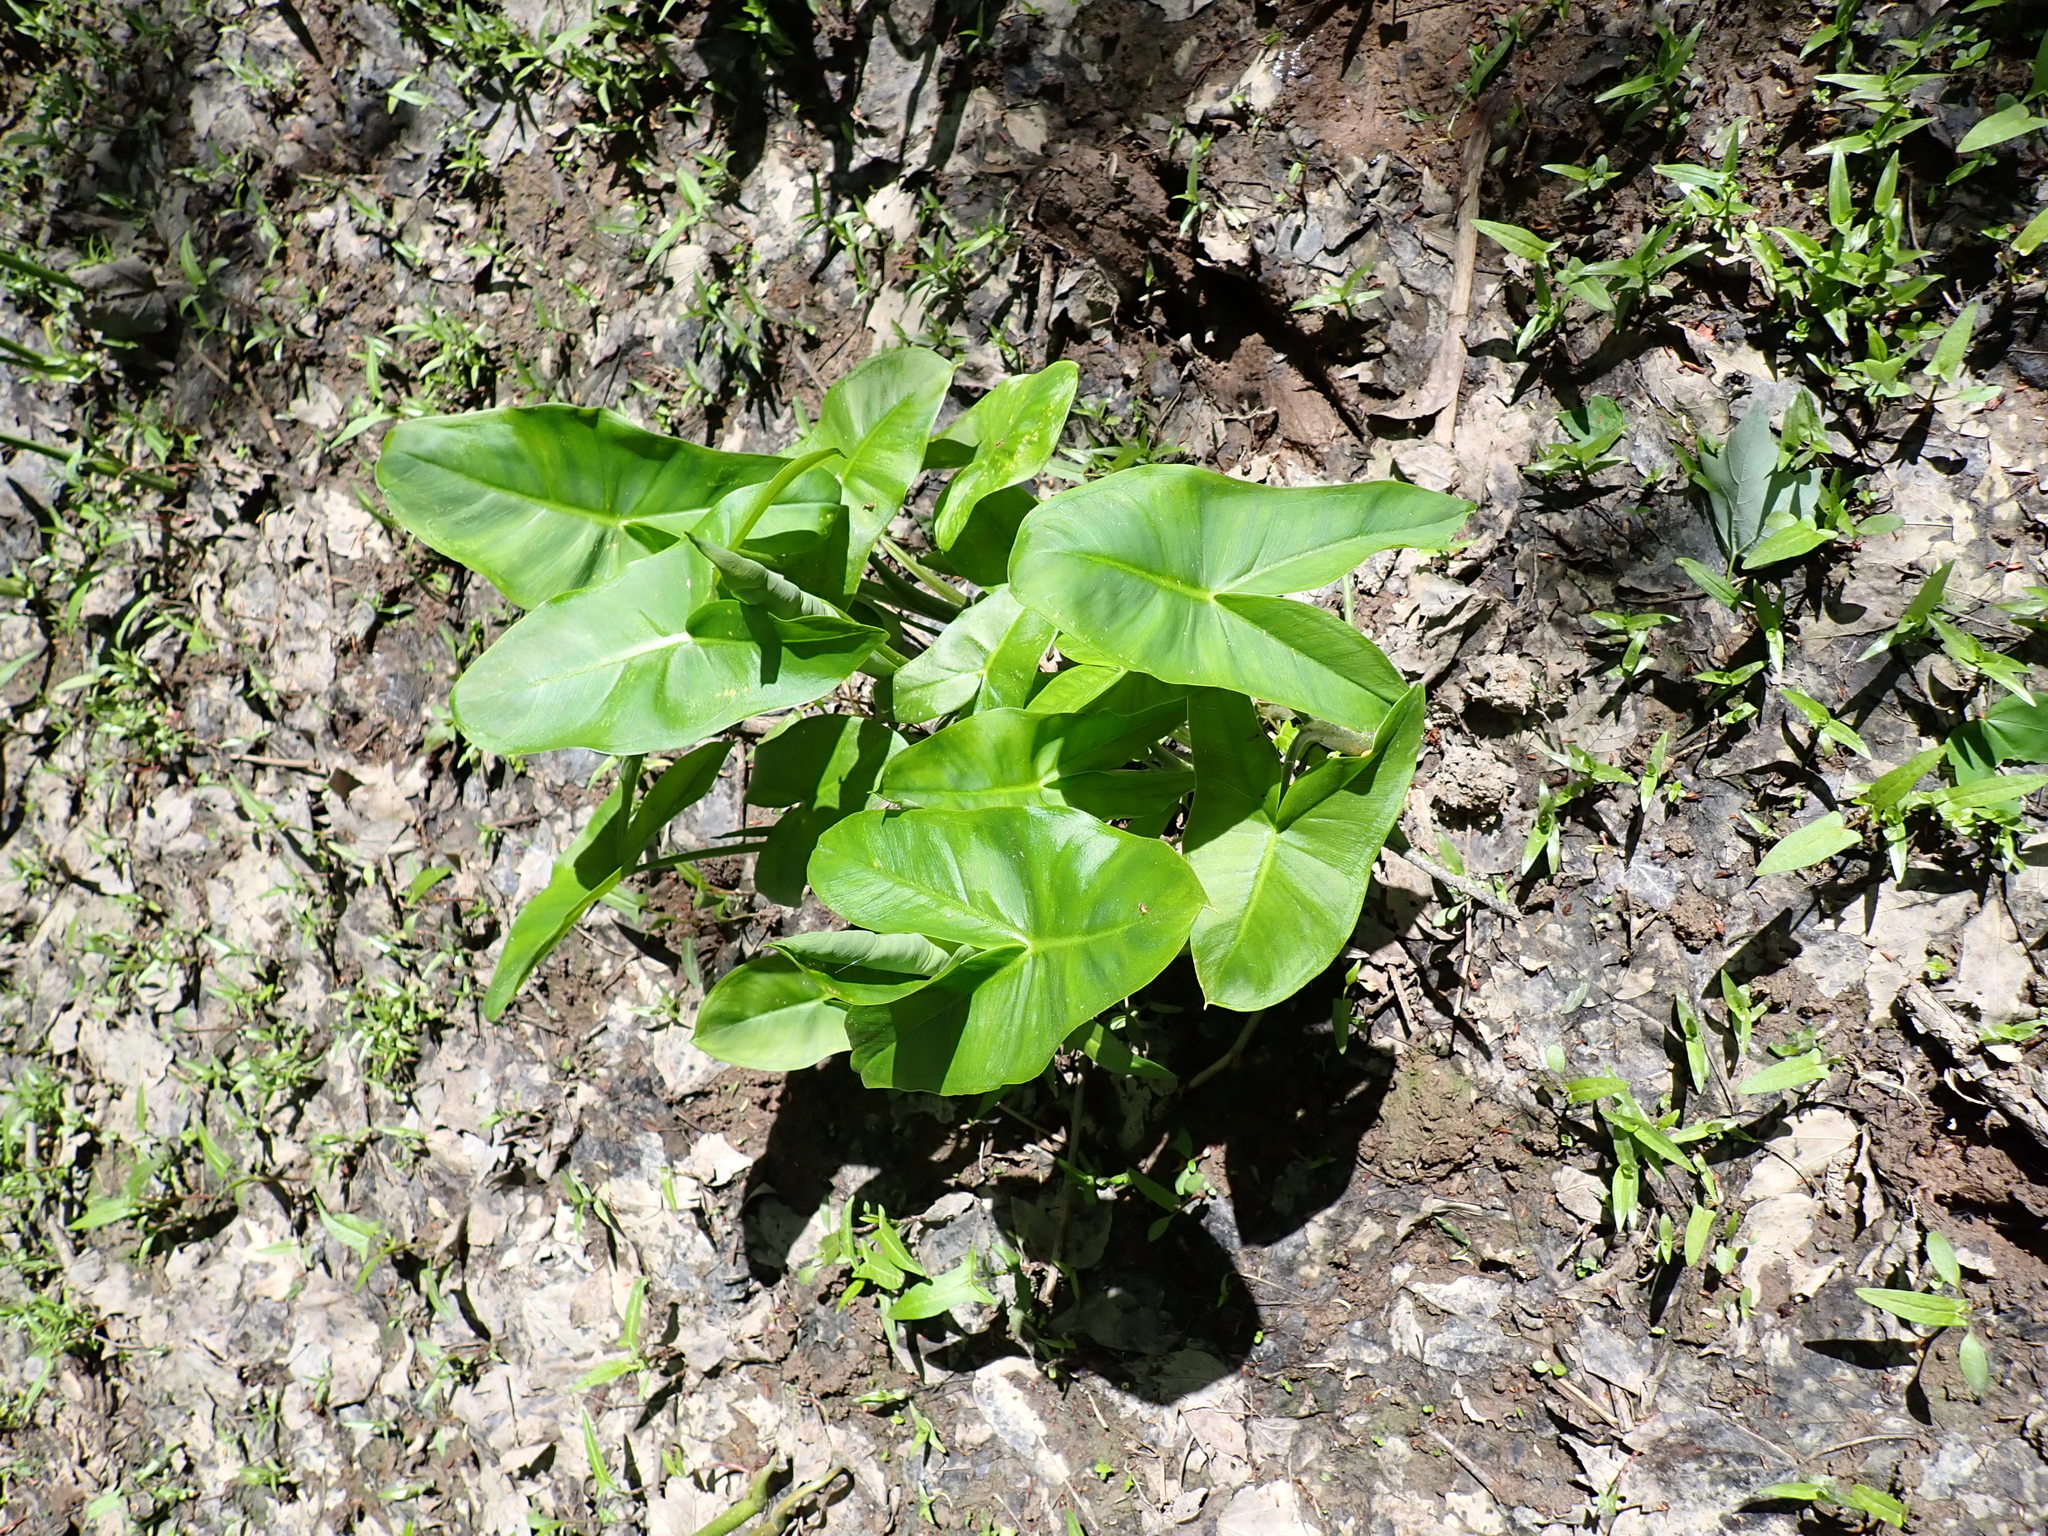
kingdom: Plantae
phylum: Tracheophyta
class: Liliopsida
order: Alismatales
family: Araceae
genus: Peltandra
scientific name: Peltandra virginica
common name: Arrow arum
